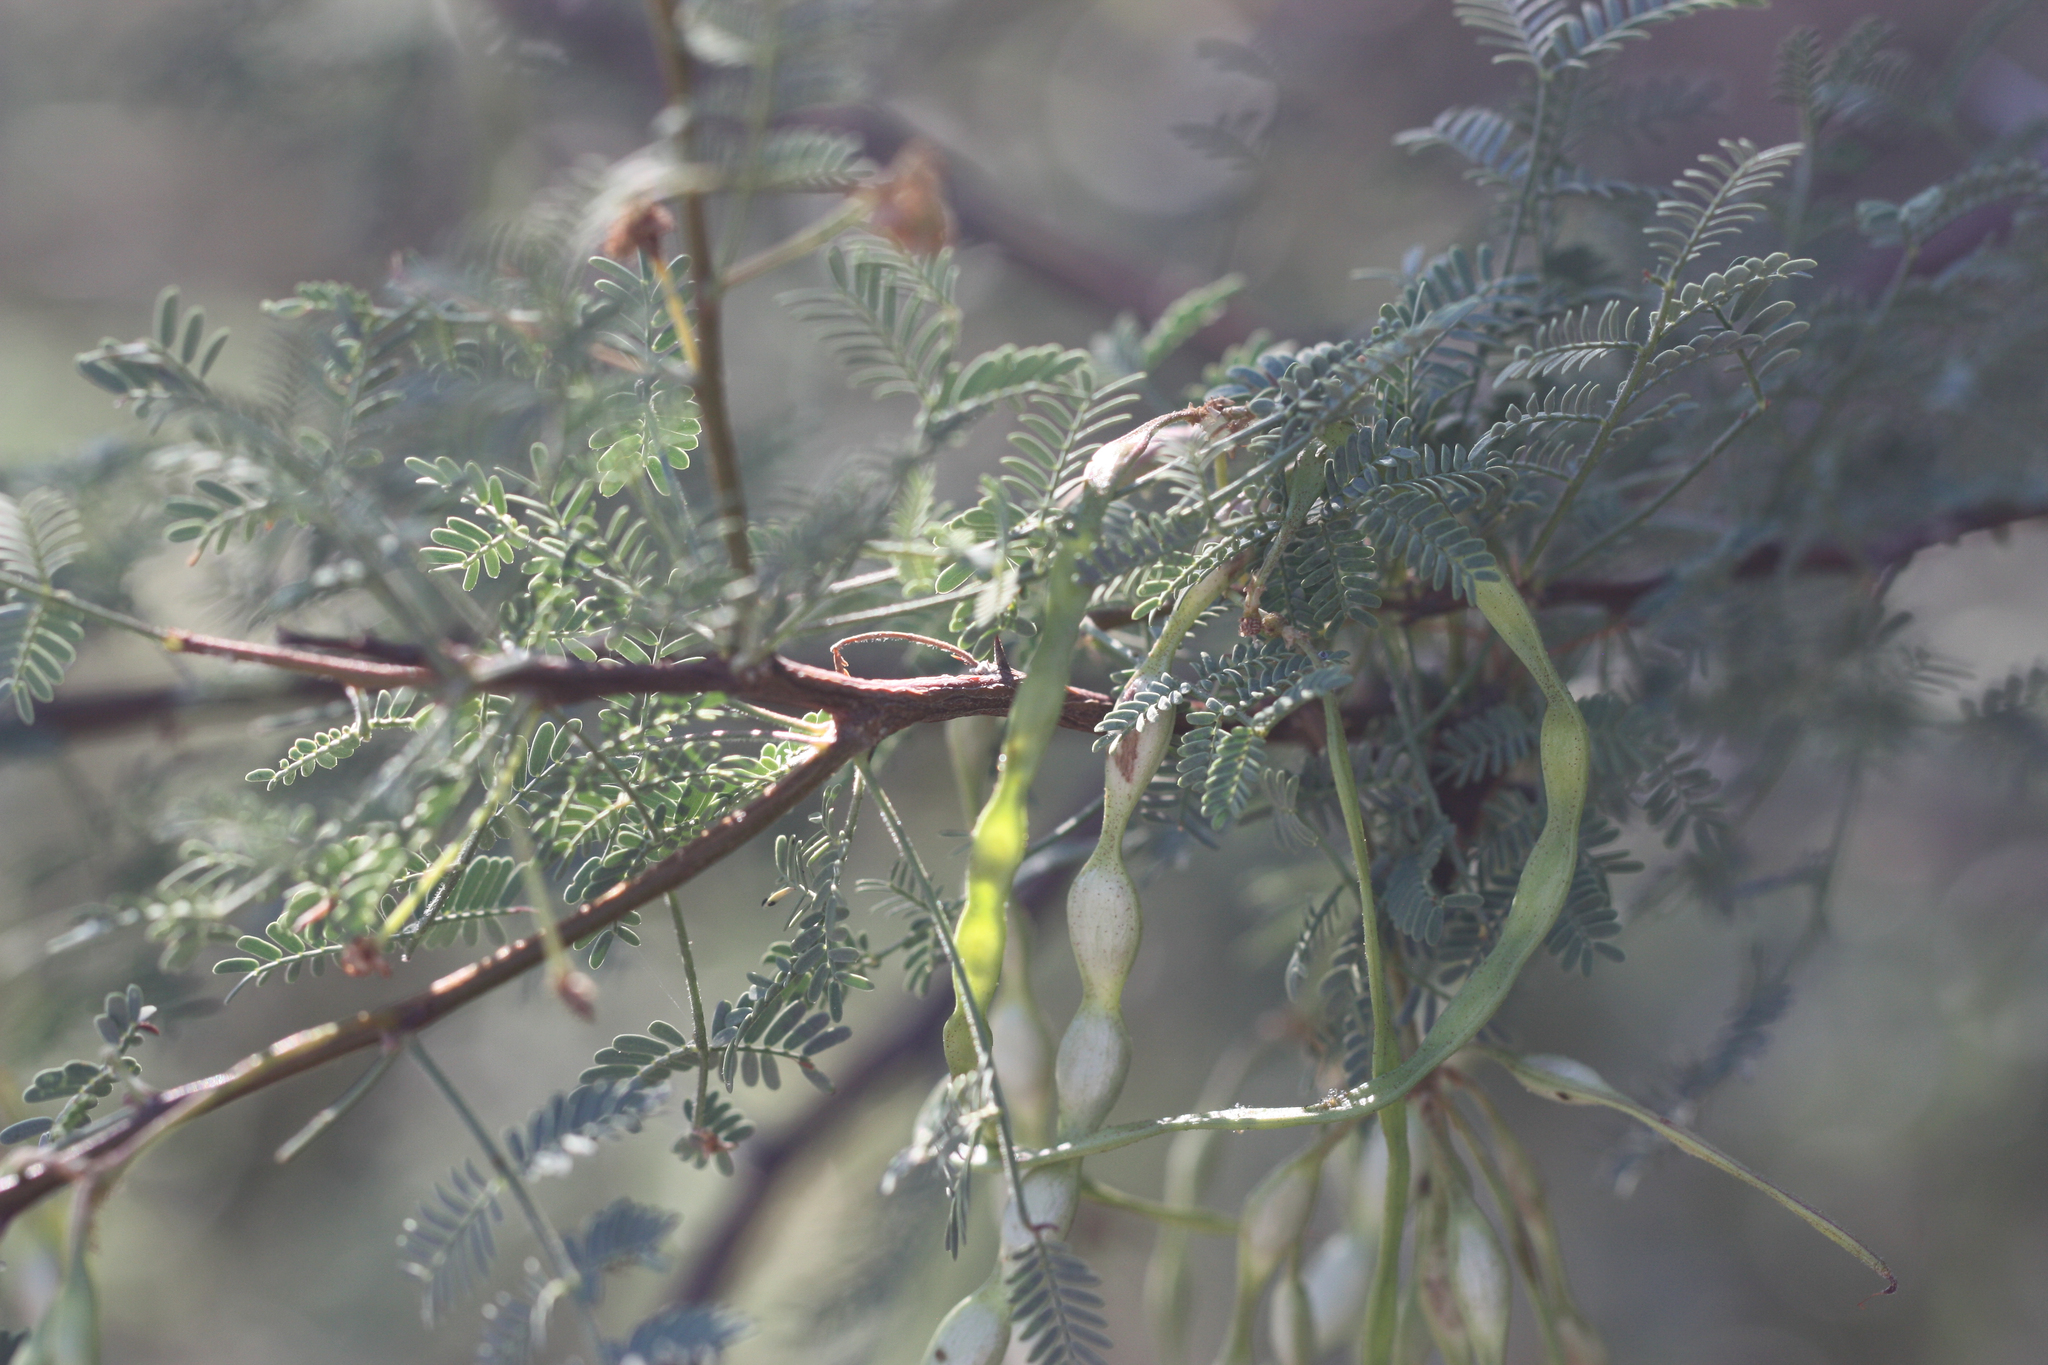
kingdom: Plantae
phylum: Tracheophyta
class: Magnoliopsida
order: Fabales
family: Fabaceae
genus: Vachellia
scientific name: Vachellia constricta
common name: Mescat acacia
